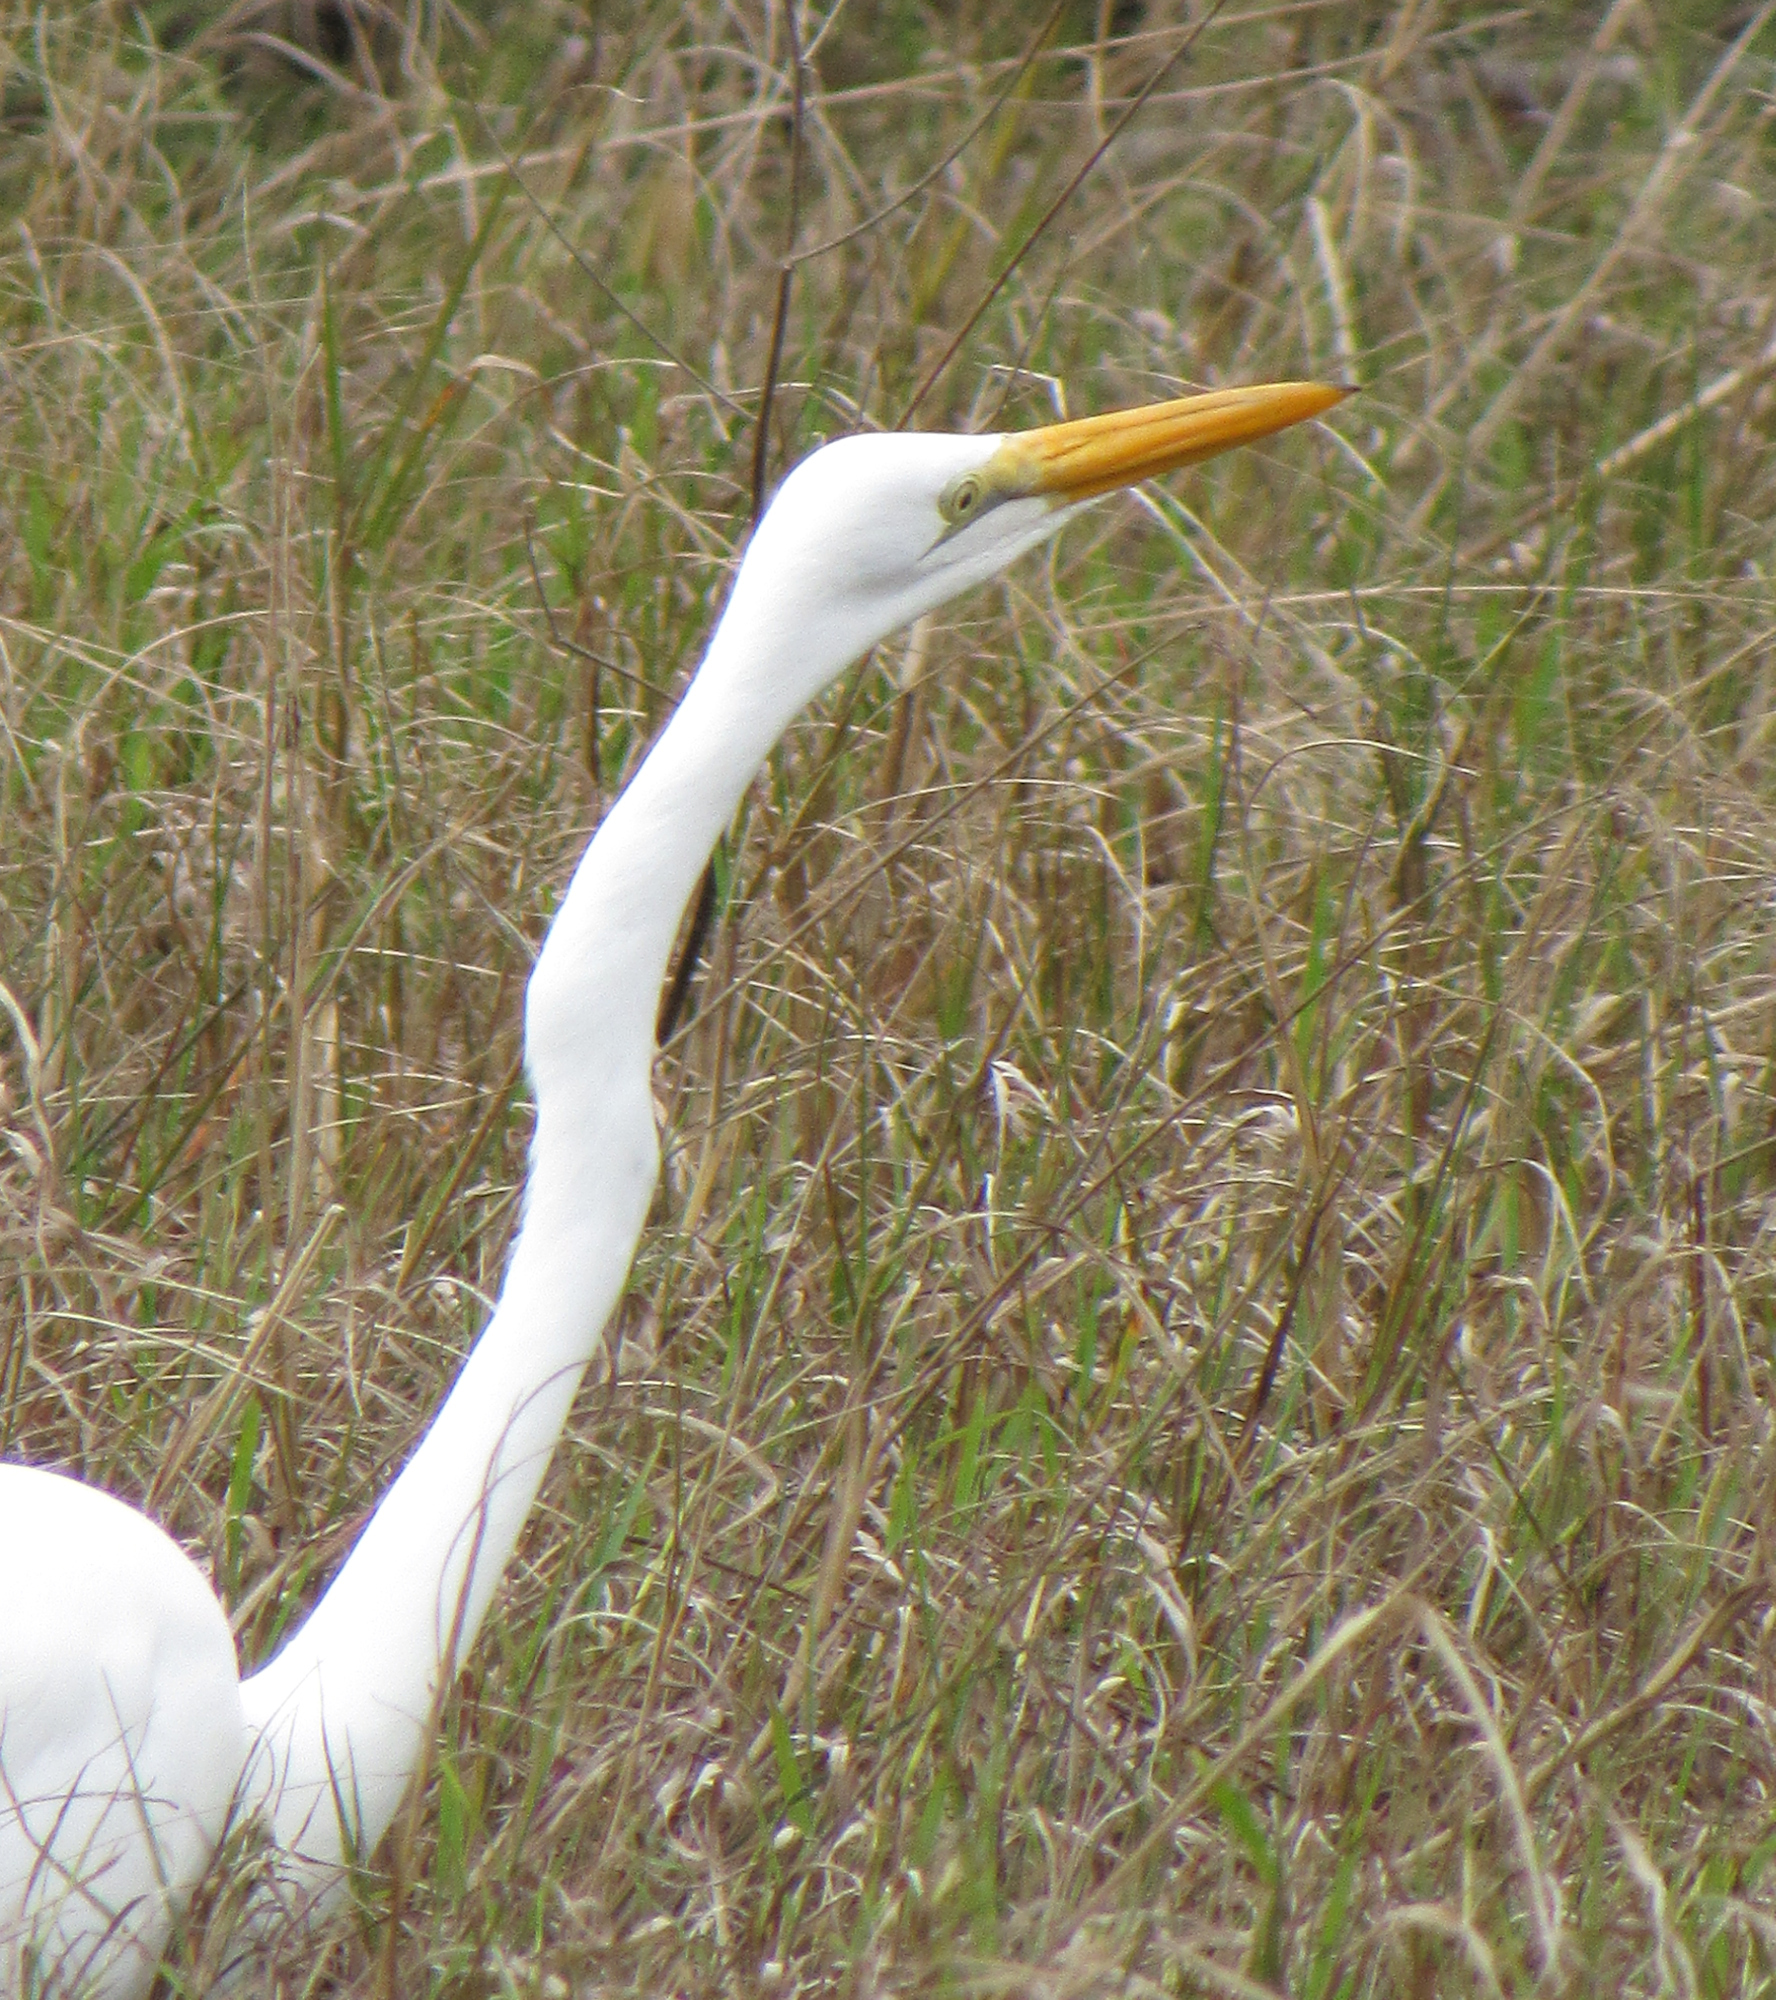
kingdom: Animalia
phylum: Chordata
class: Aves
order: Pelecaniformes
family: Ardeidae
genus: Ardea
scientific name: Ardea alba
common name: Great egret
